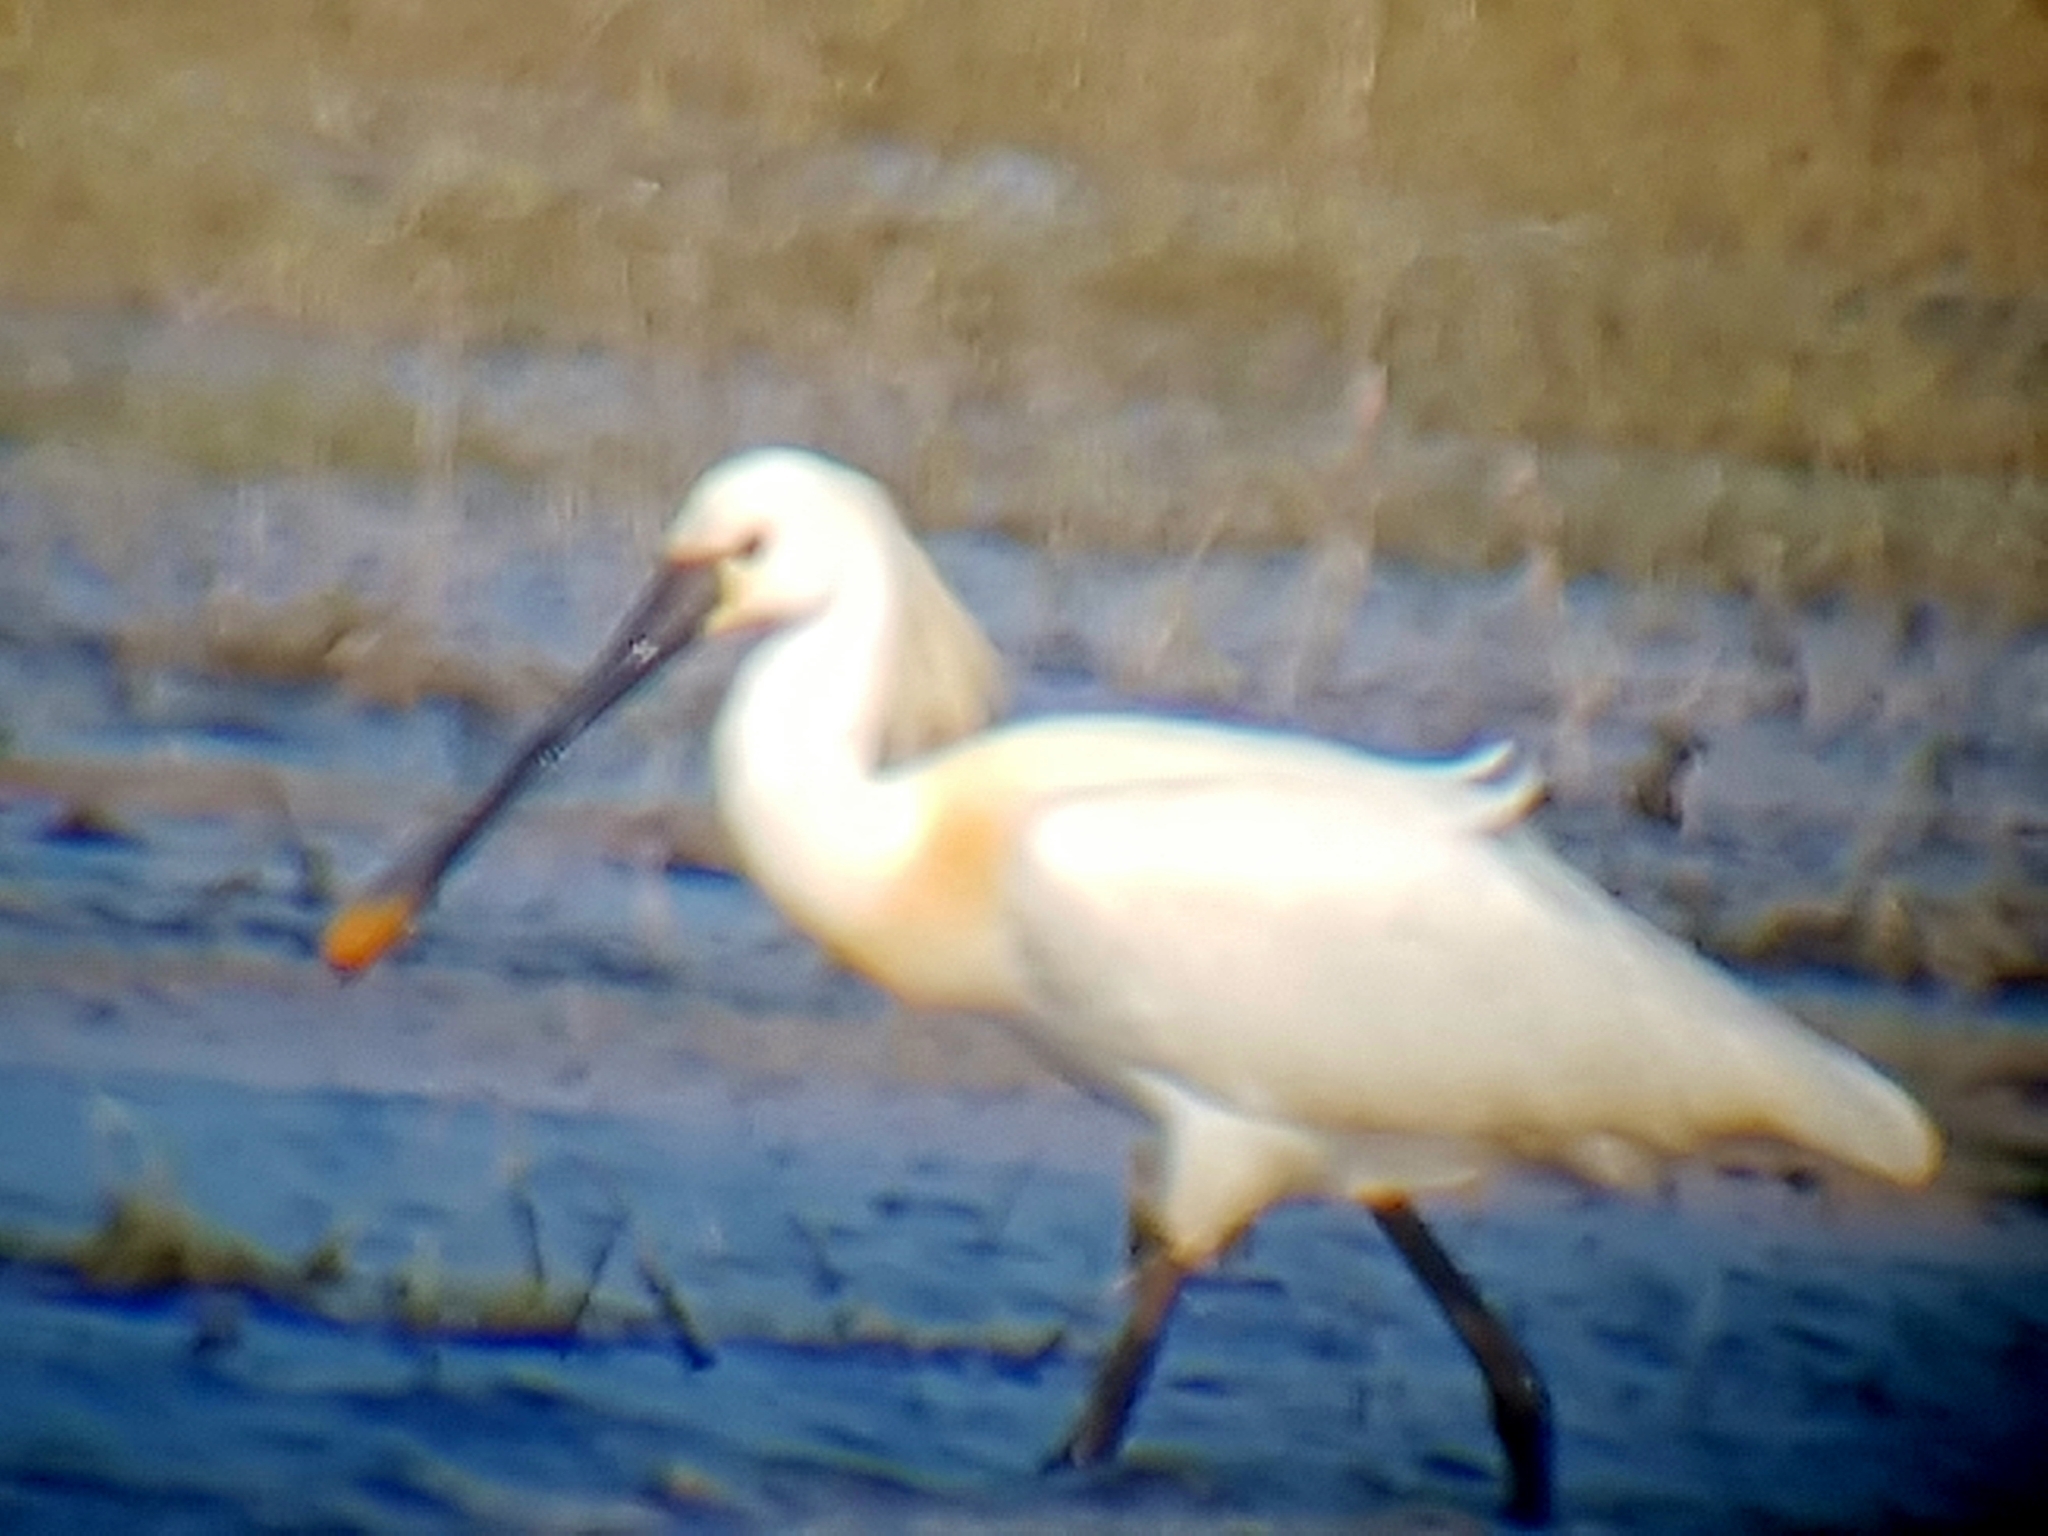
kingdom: Animalia
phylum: Chordata
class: Aves
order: Pelecaniformes
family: Threskiornithidae
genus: Platalea
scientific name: Platalea leucorodia
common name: Eurasian spoonbill
